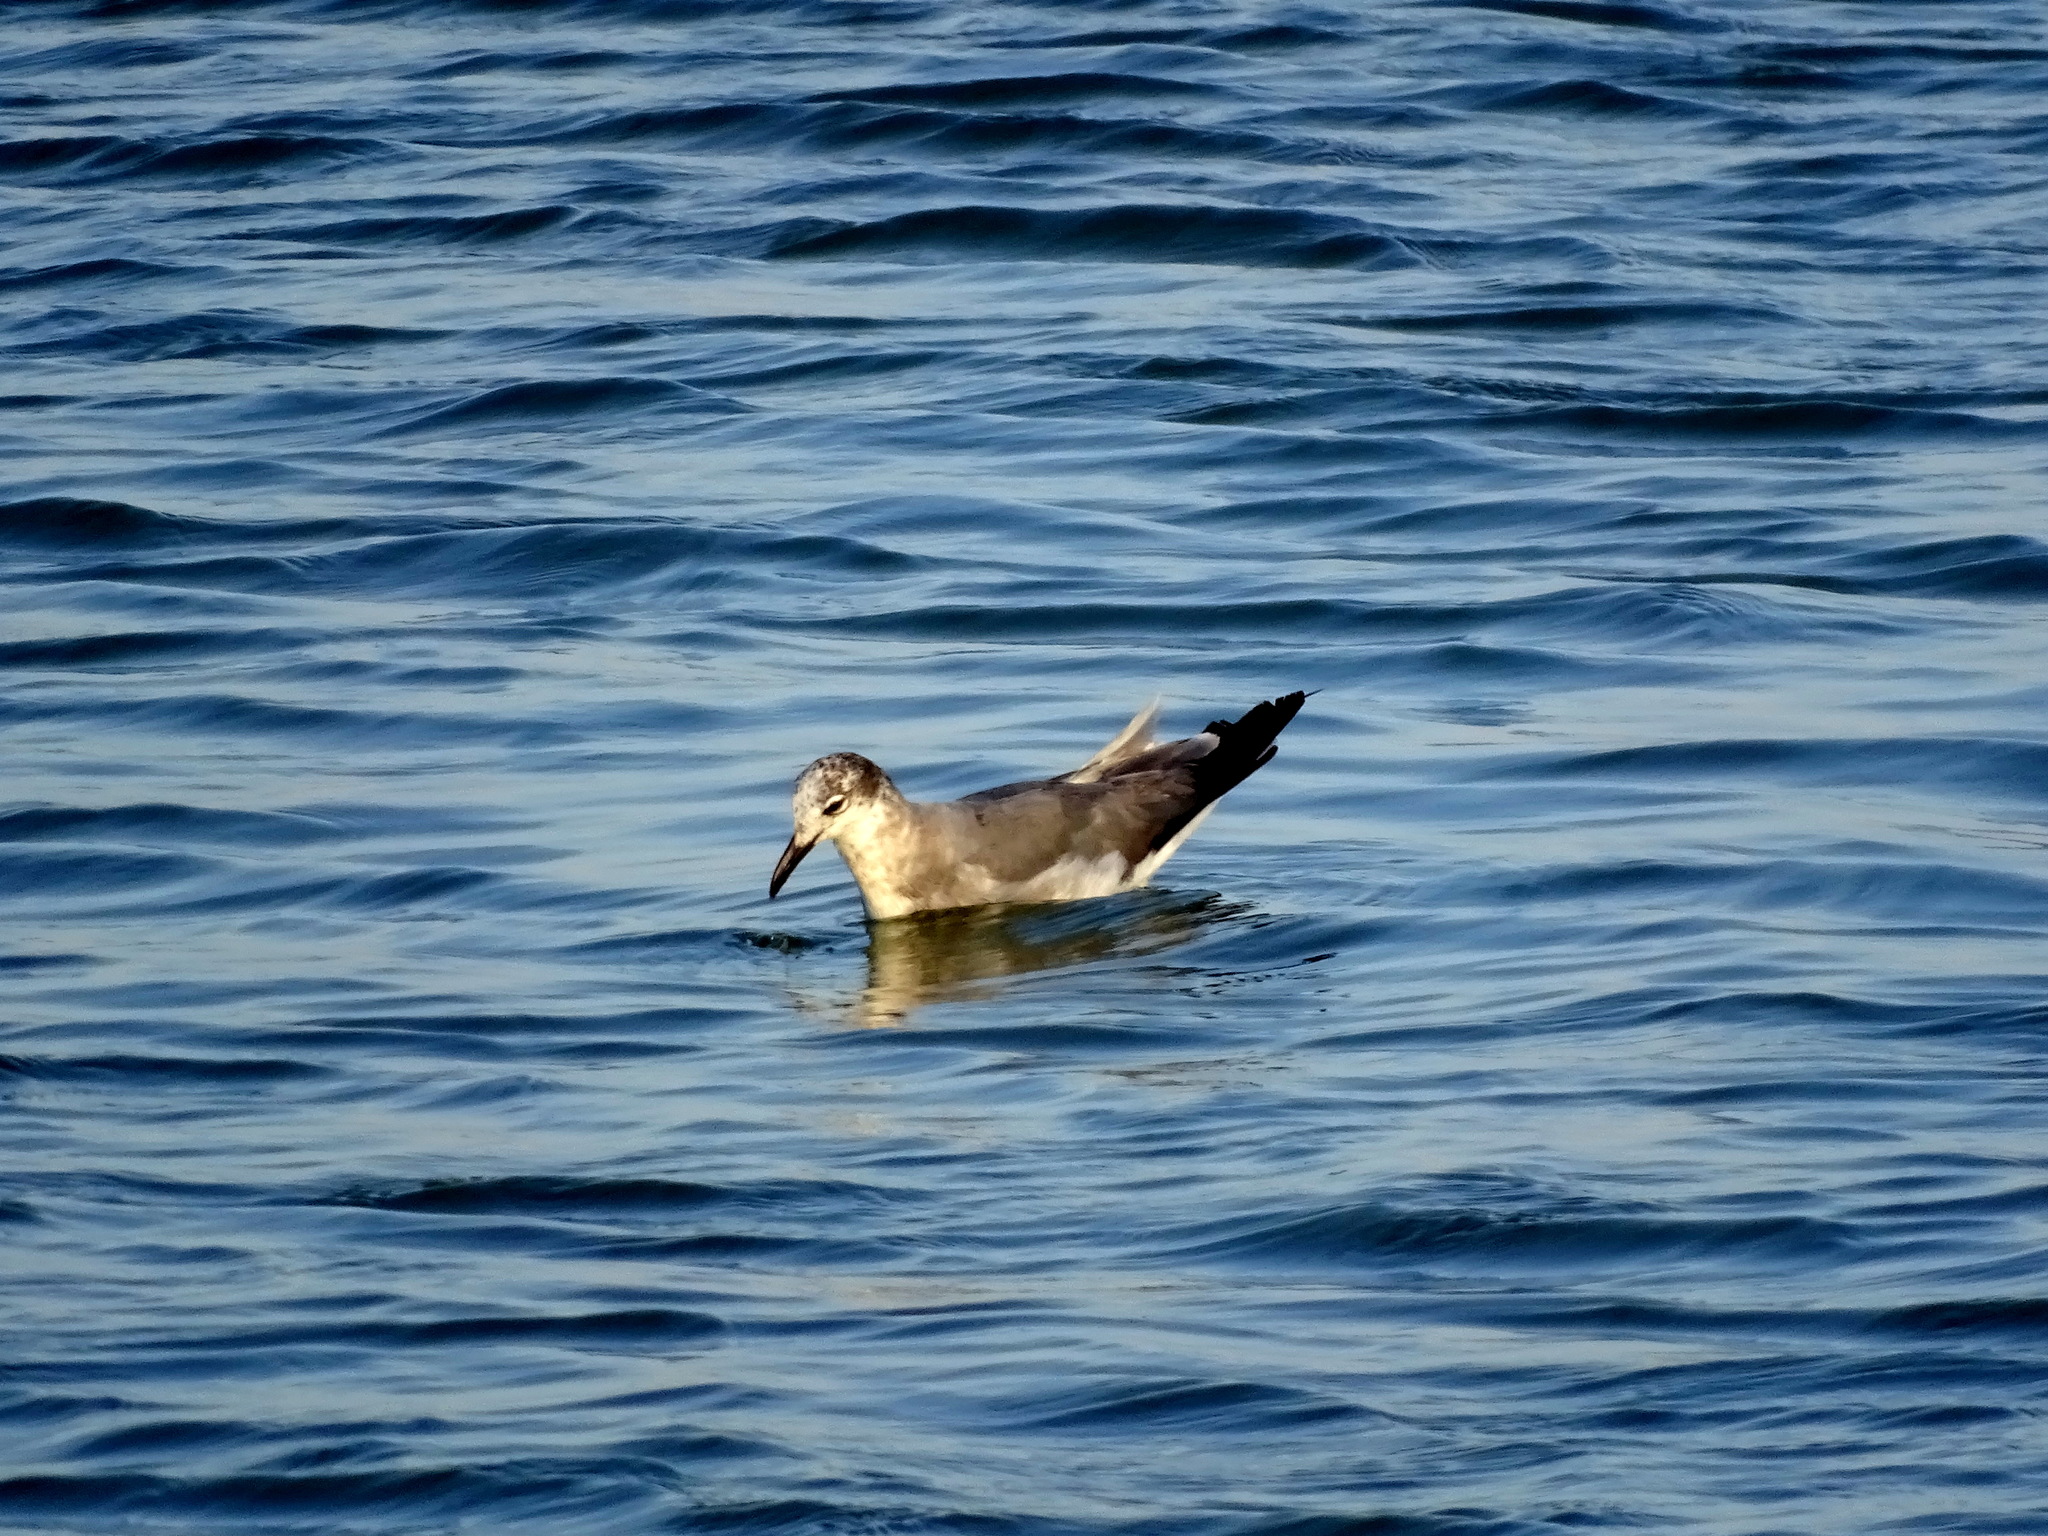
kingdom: Animalia
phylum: Chordata
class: Aves
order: Charadriiformes
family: Laridae
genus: Leucophaeus
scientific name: Leucophaeus atricilla
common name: Laughing gull
